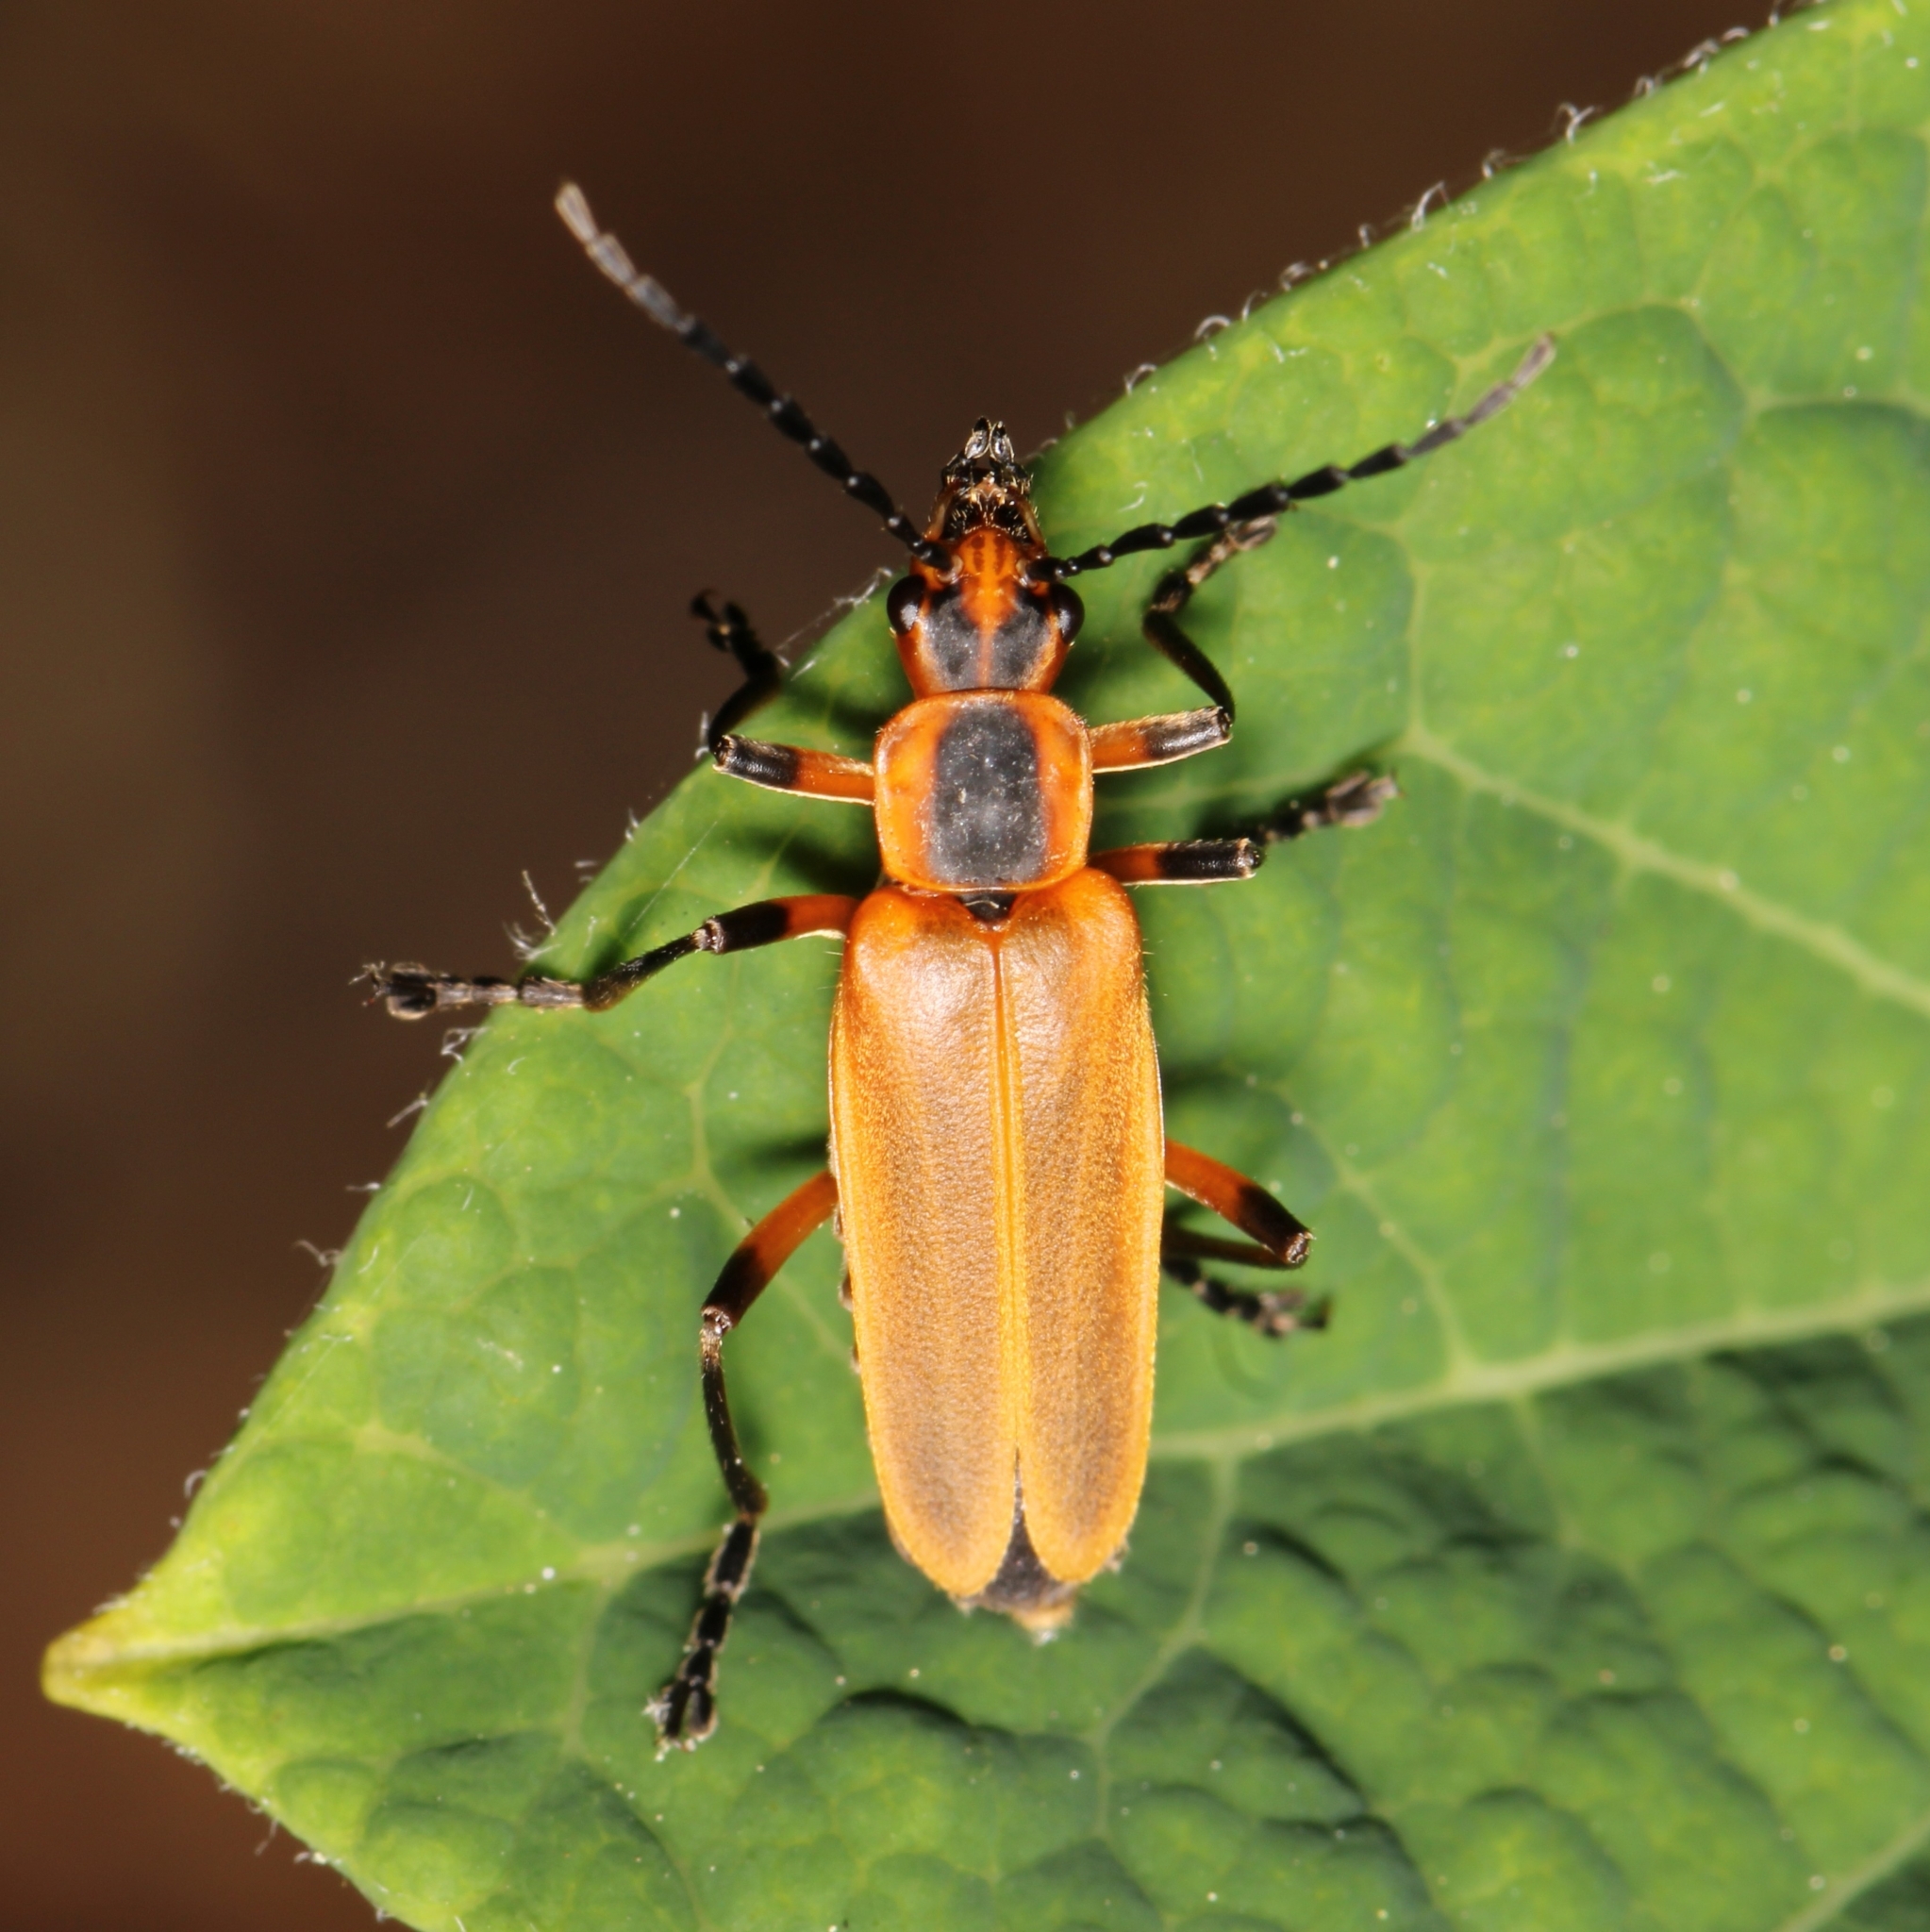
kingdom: Animalia
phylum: Arthropoda
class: Insecta
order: Coleoptera
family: Cantharidae
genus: Chauliognathus
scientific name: Chauliognathus marginatus
